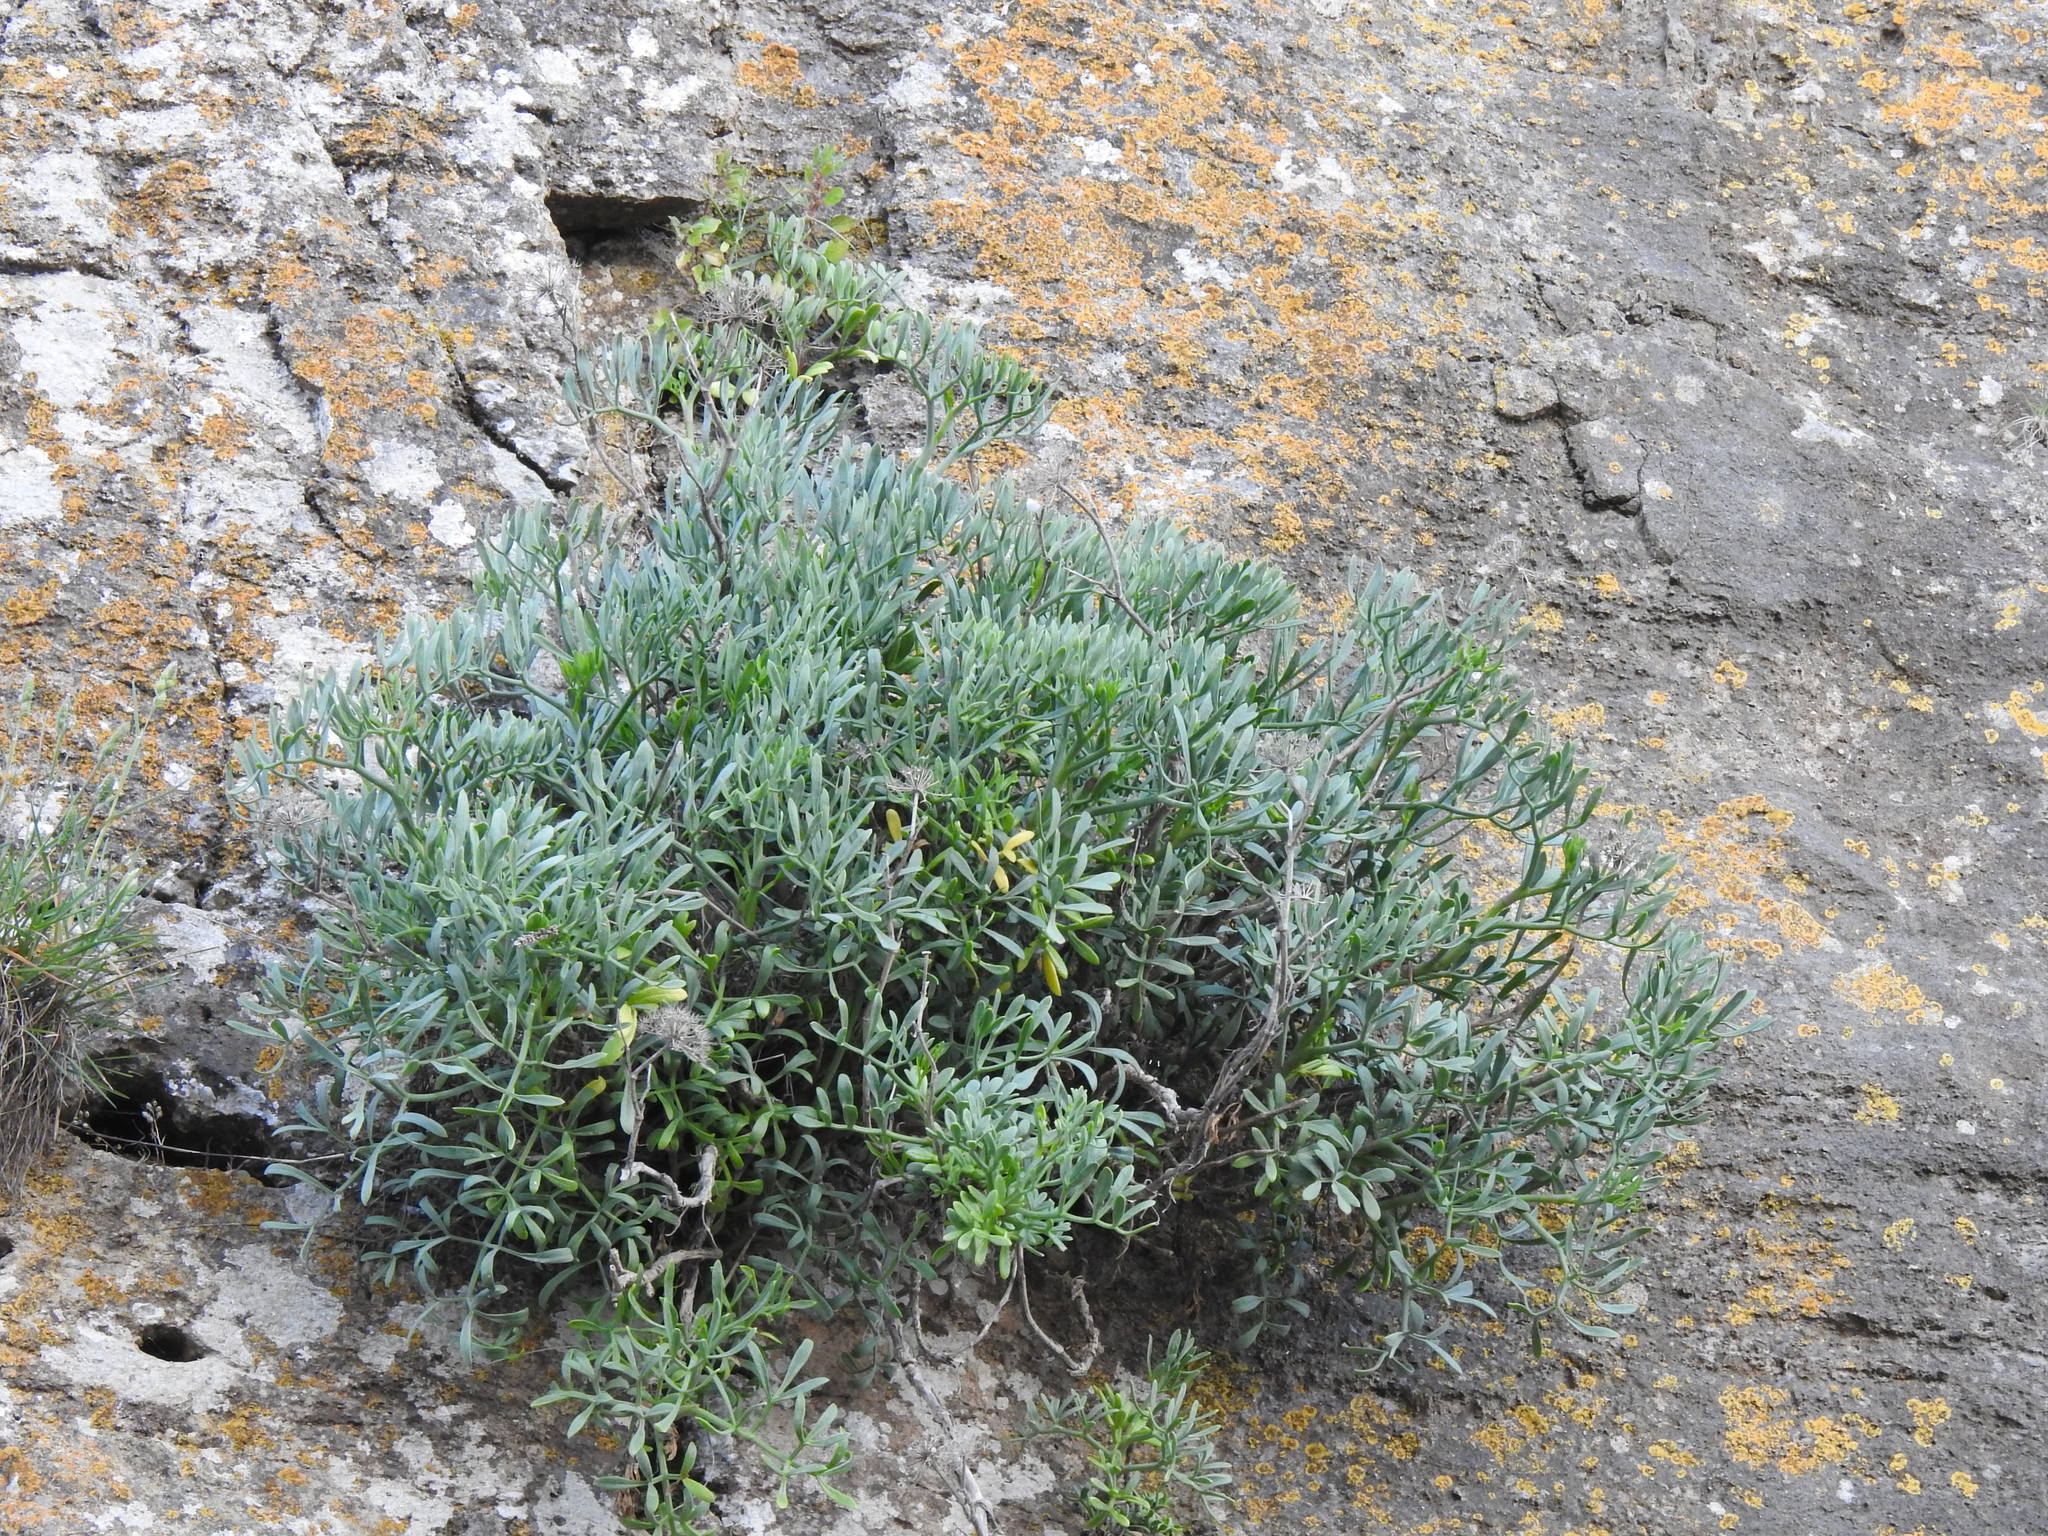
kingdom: Plantae
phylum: Tracheophyta
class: Magnoliopsida
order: Apiales
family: Apiaceae
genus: Crithmum
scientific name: Crithmum maritimum
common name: Rock samphire
